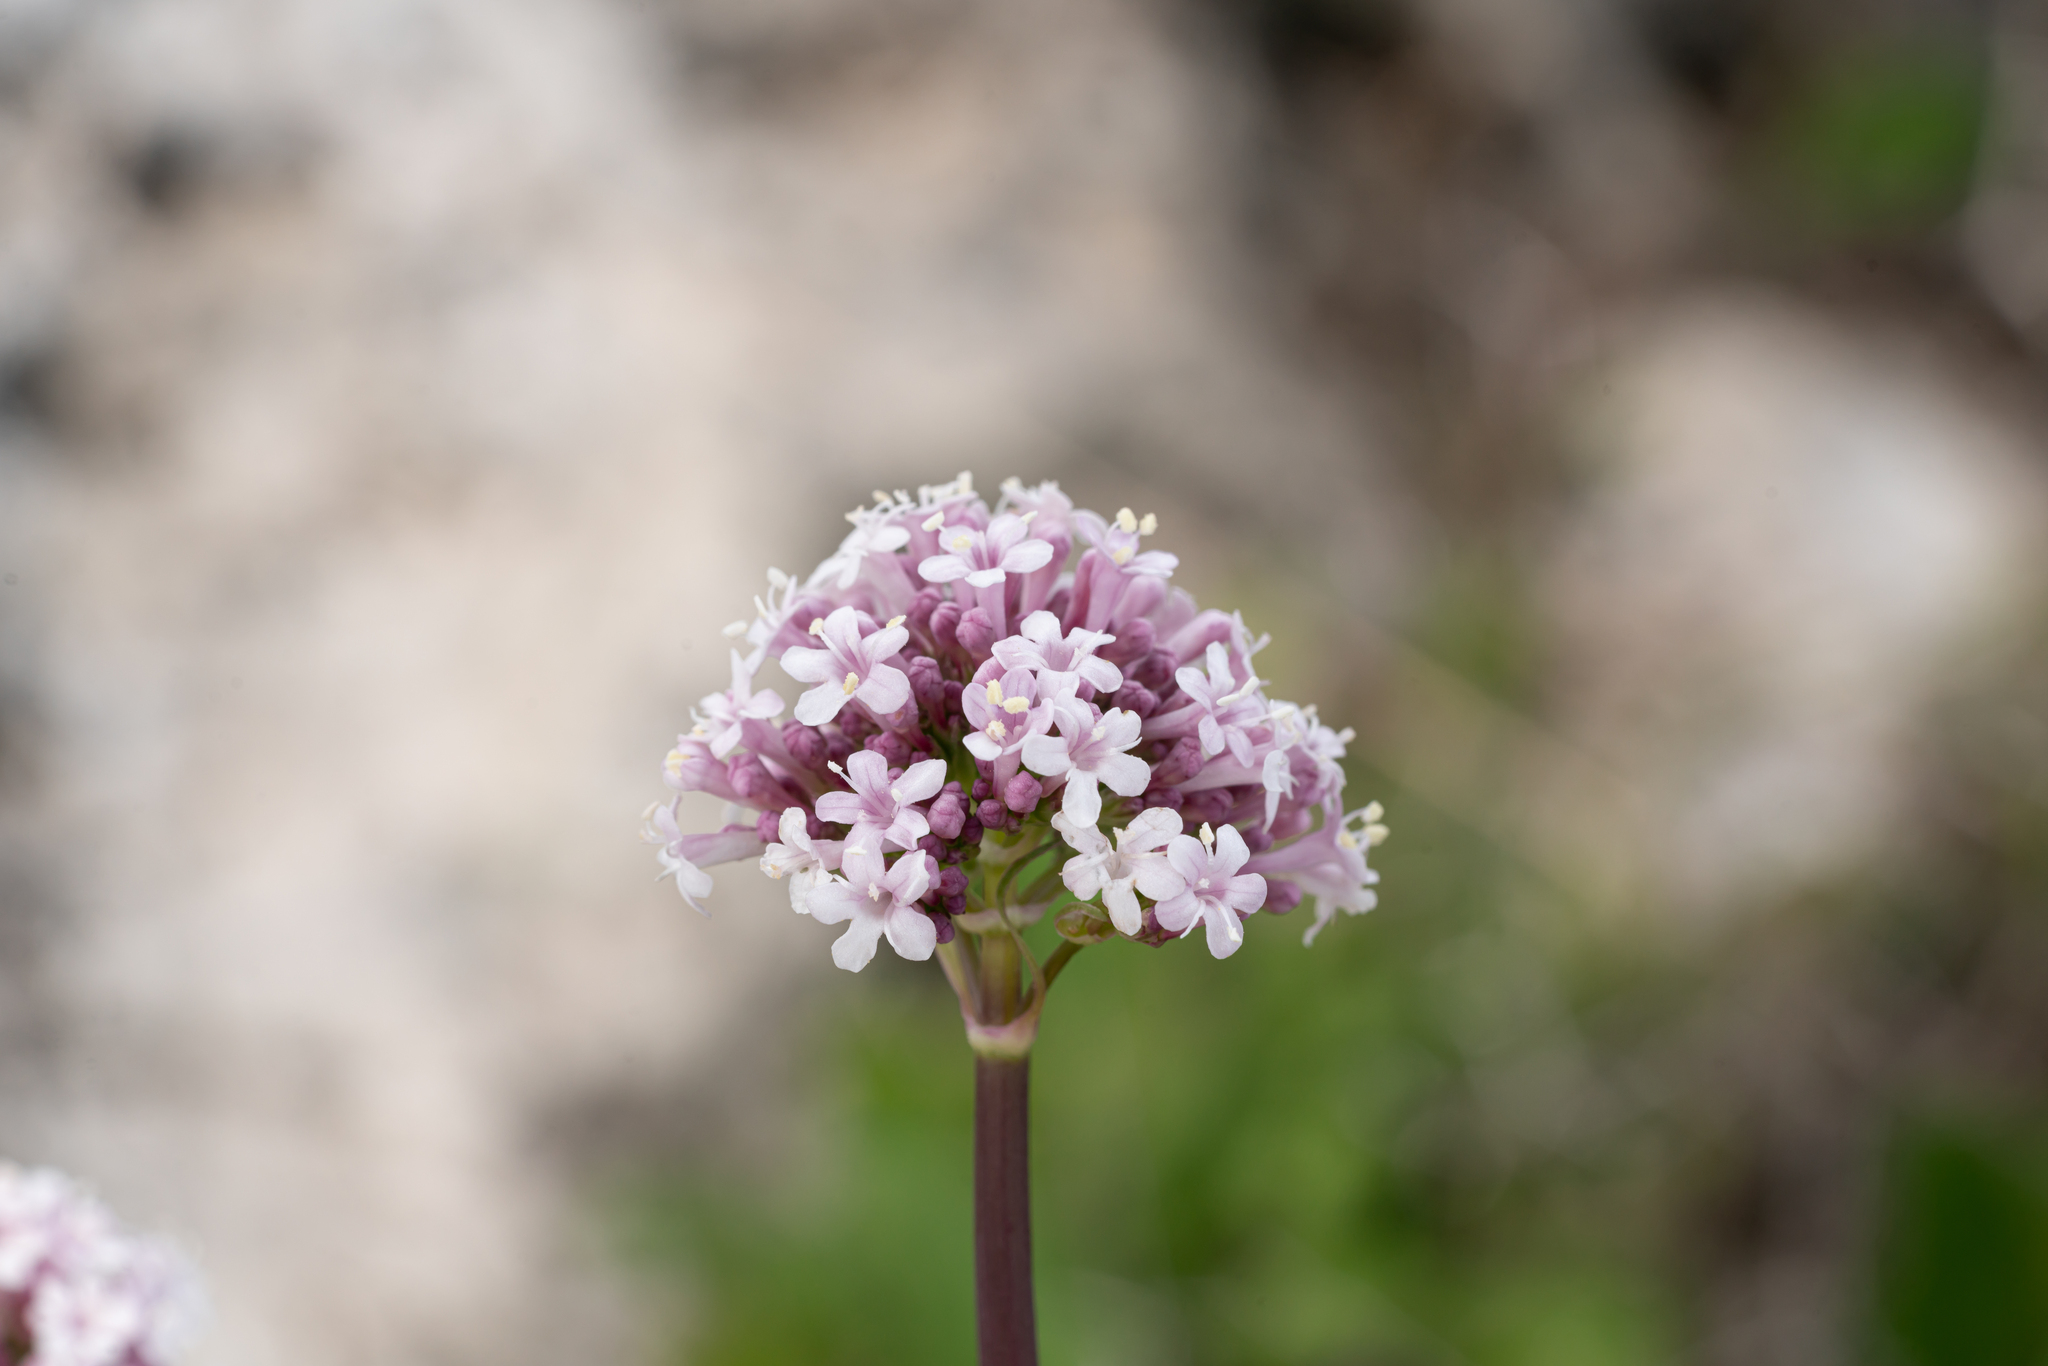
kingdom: Plantae
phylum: Tracheophyta
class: Magnoliopsida
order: Dipsacales
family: Caprifoliaceae
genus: Valeriana
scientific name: Valeriana dioscoridis
